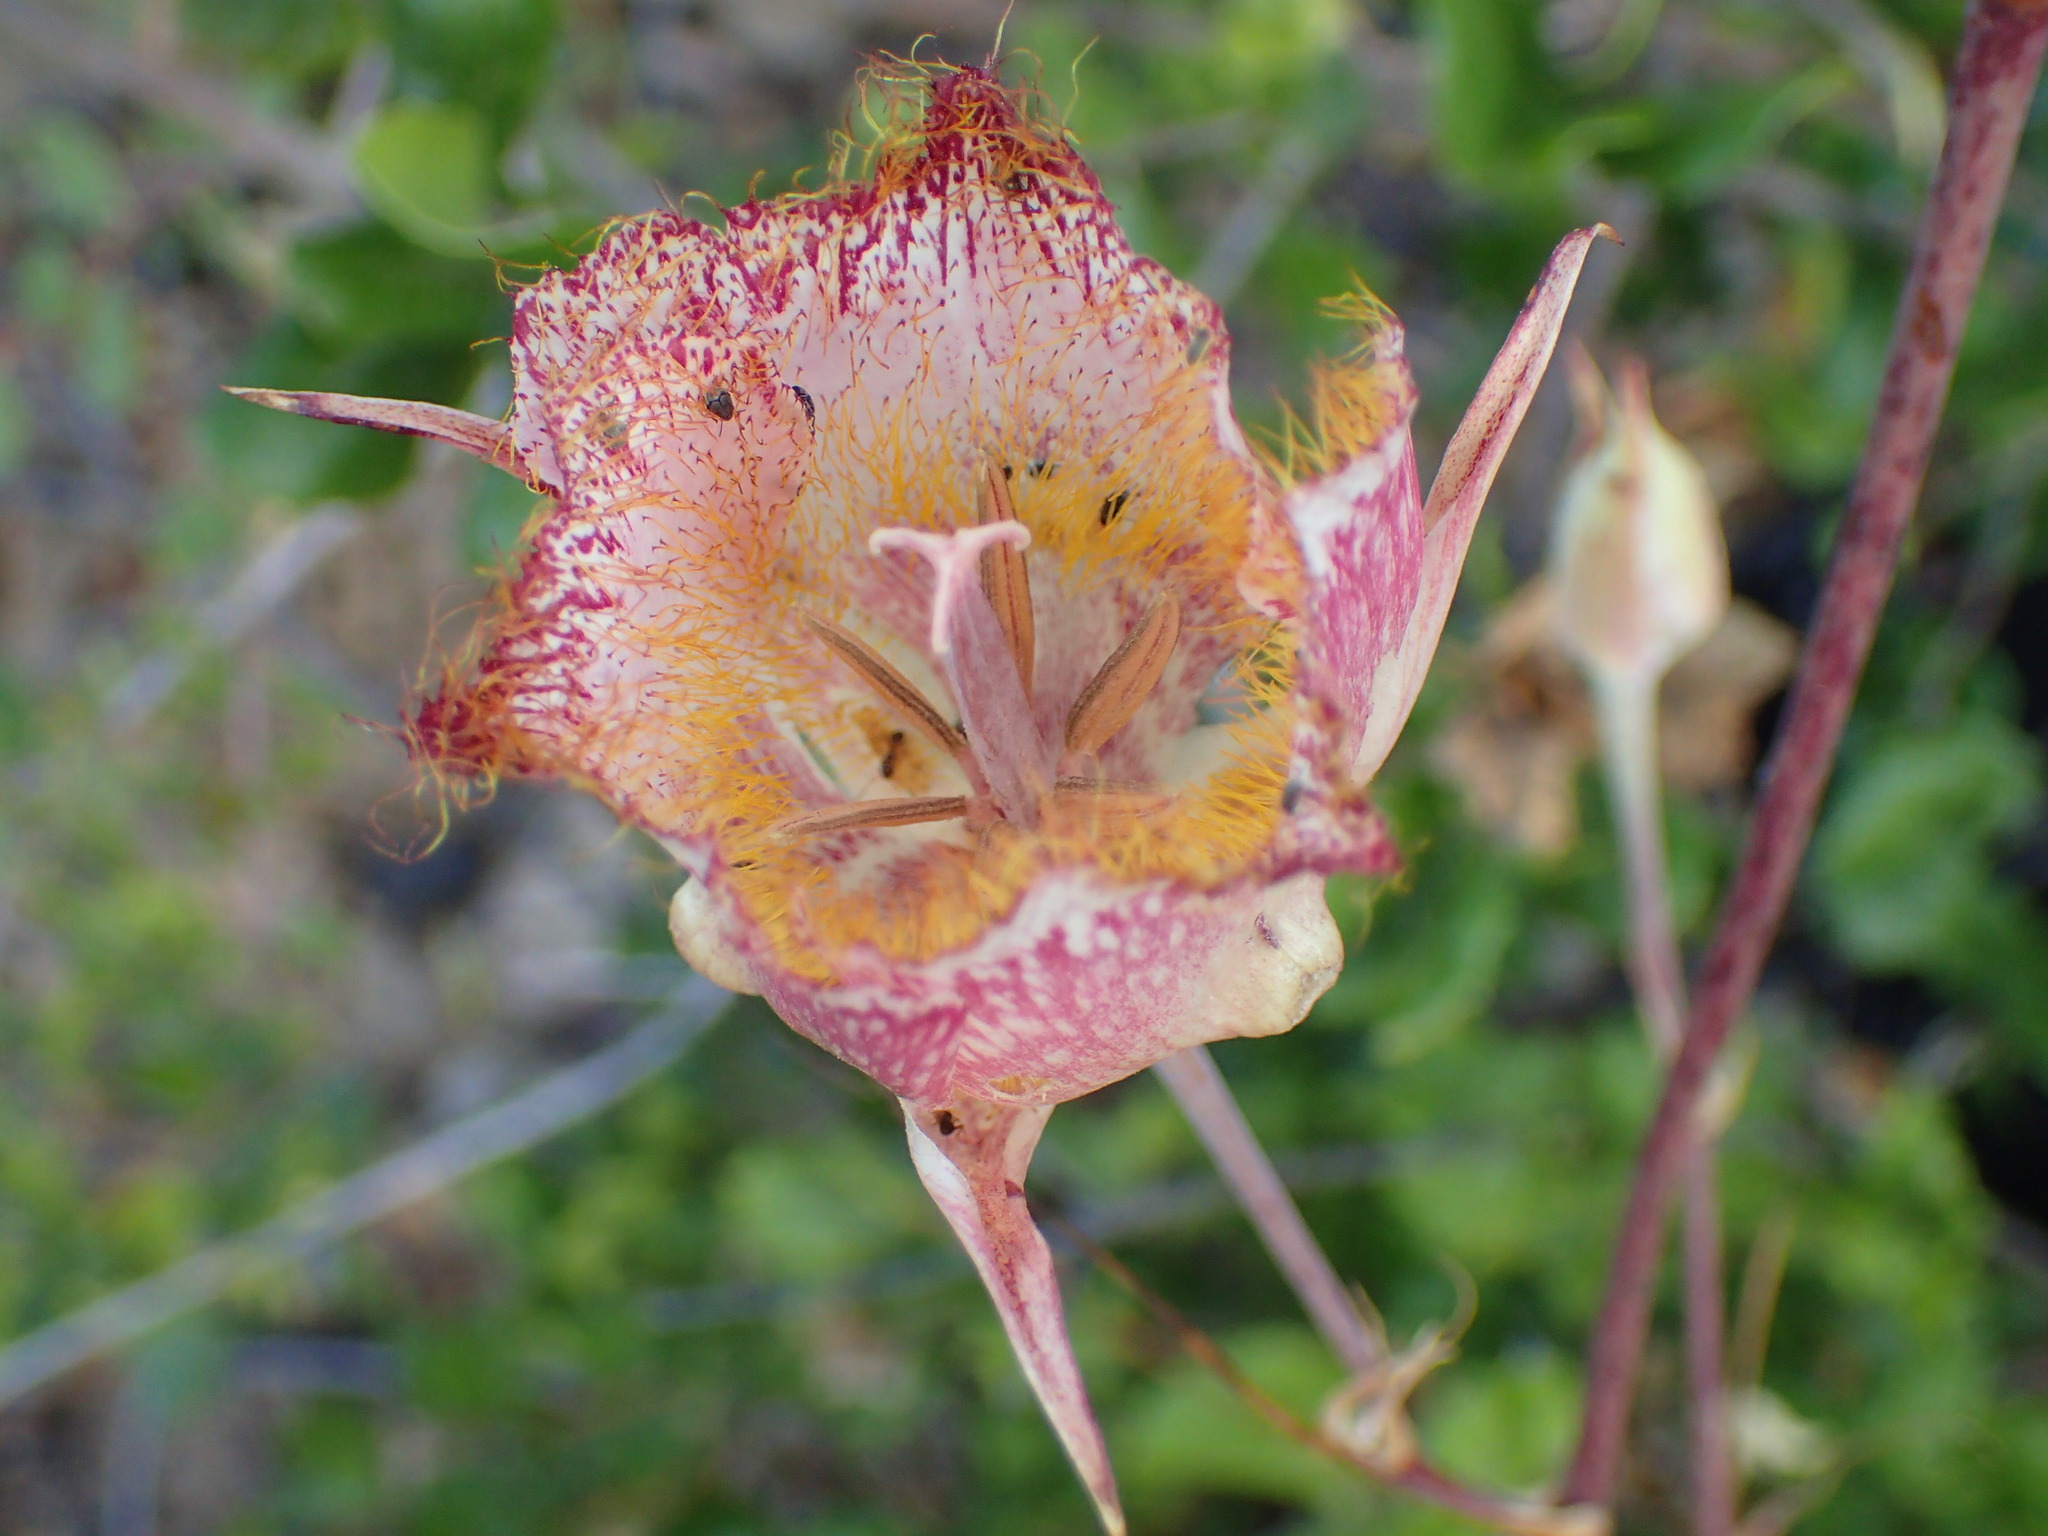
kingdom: Plantae
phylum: Tracheophyta
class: Liliopsida
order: Liliales
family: Liliaceae
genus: Calochortus
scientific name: Calochortus fimbriatus
